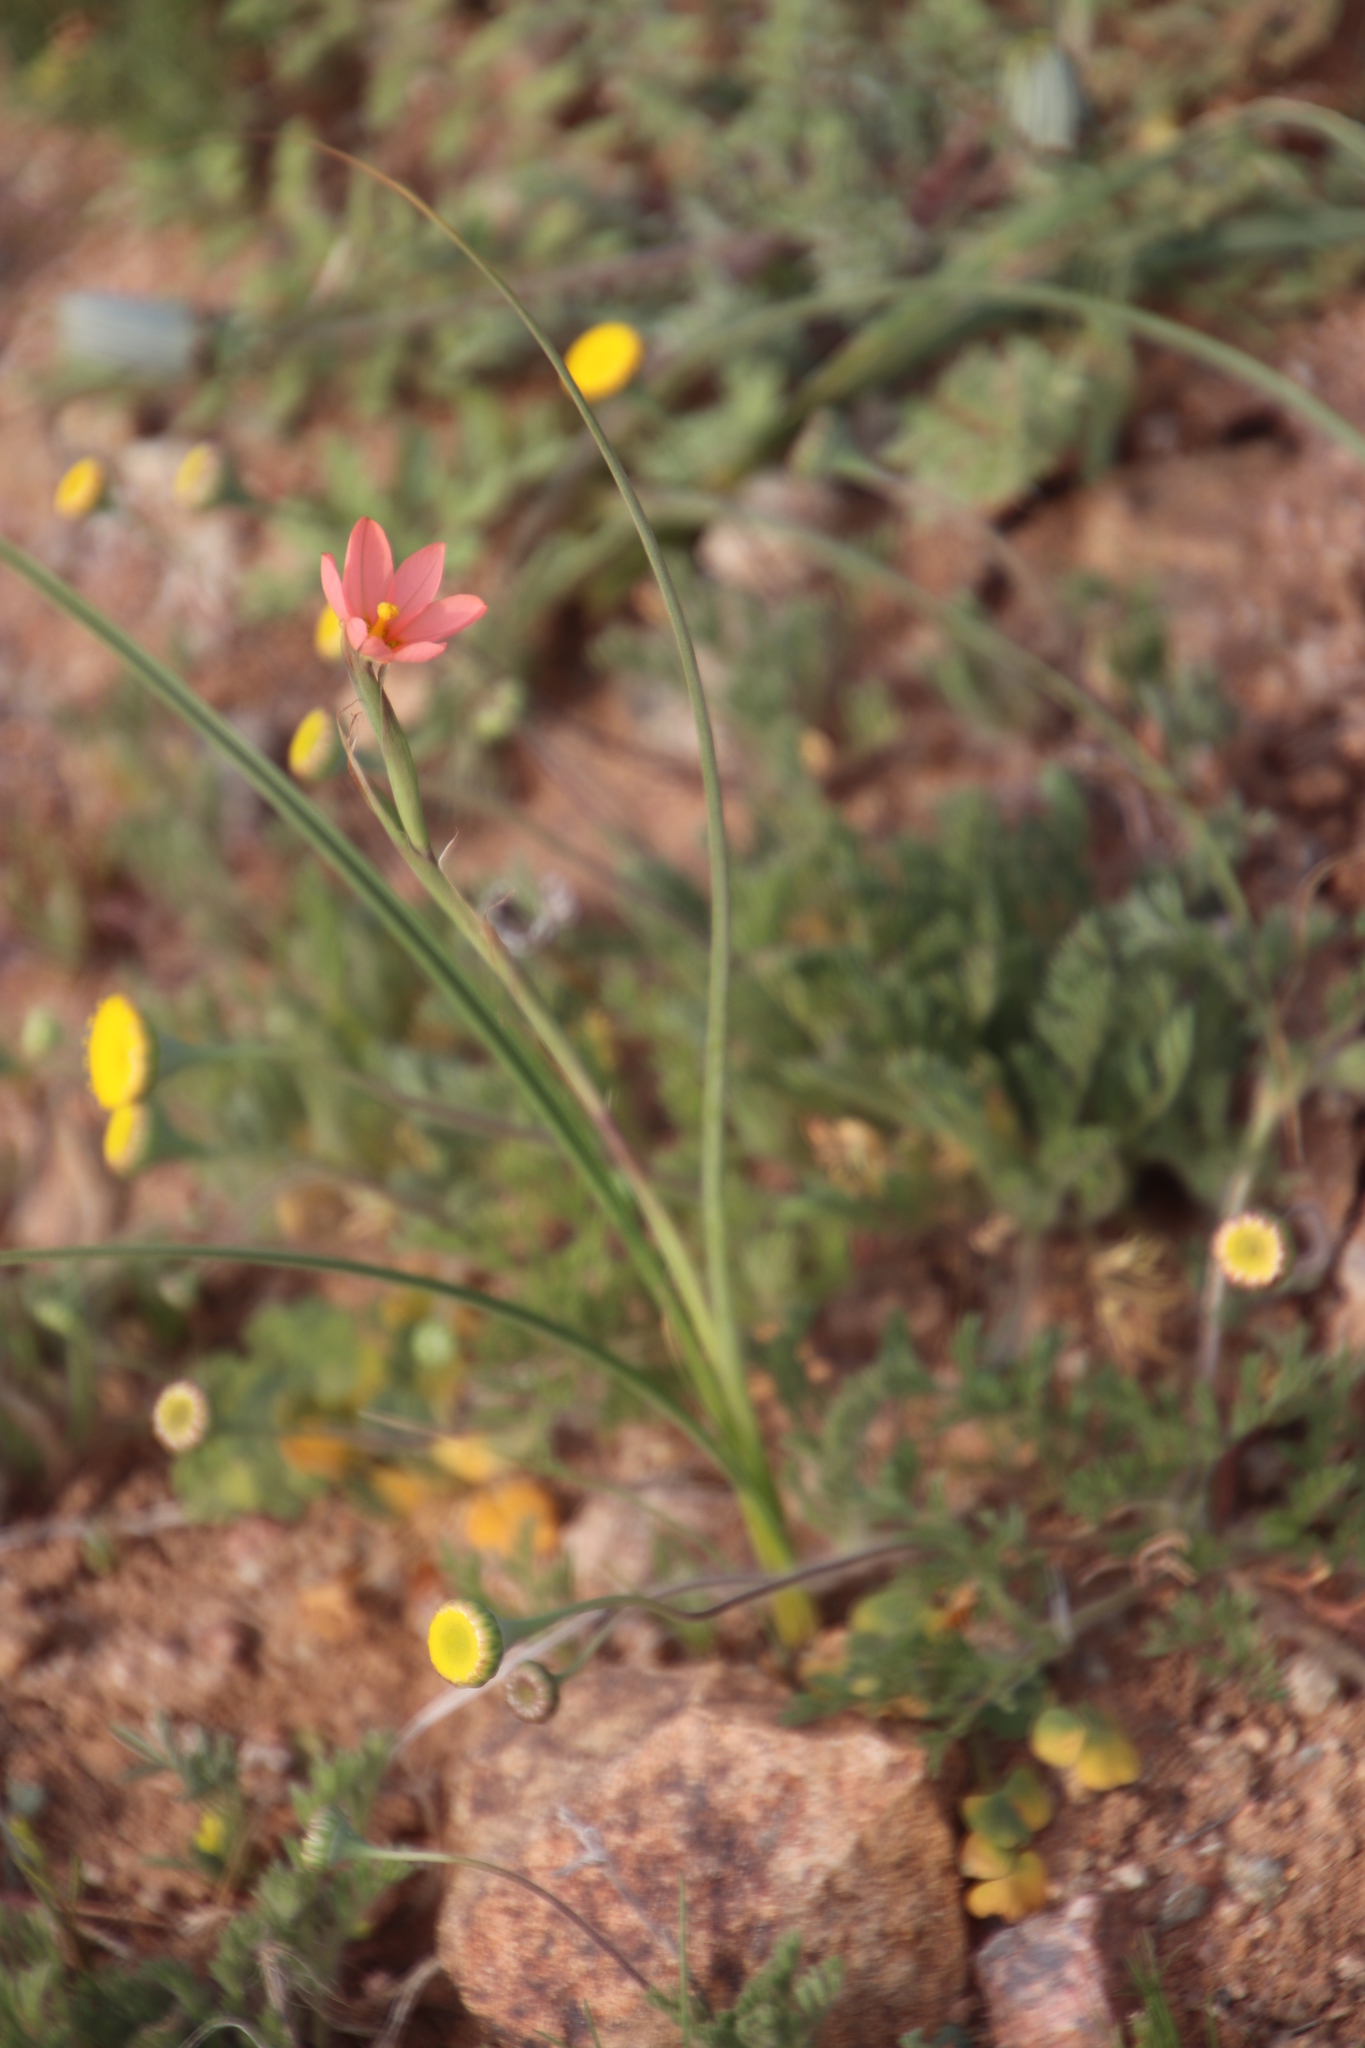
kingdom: Plantae
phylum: Tracheophyta
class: Liliopsida
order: Asparagales
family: Iridaceae
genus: Moraea
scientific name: Moraea miniata
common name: Two-leaf cape-tulip
